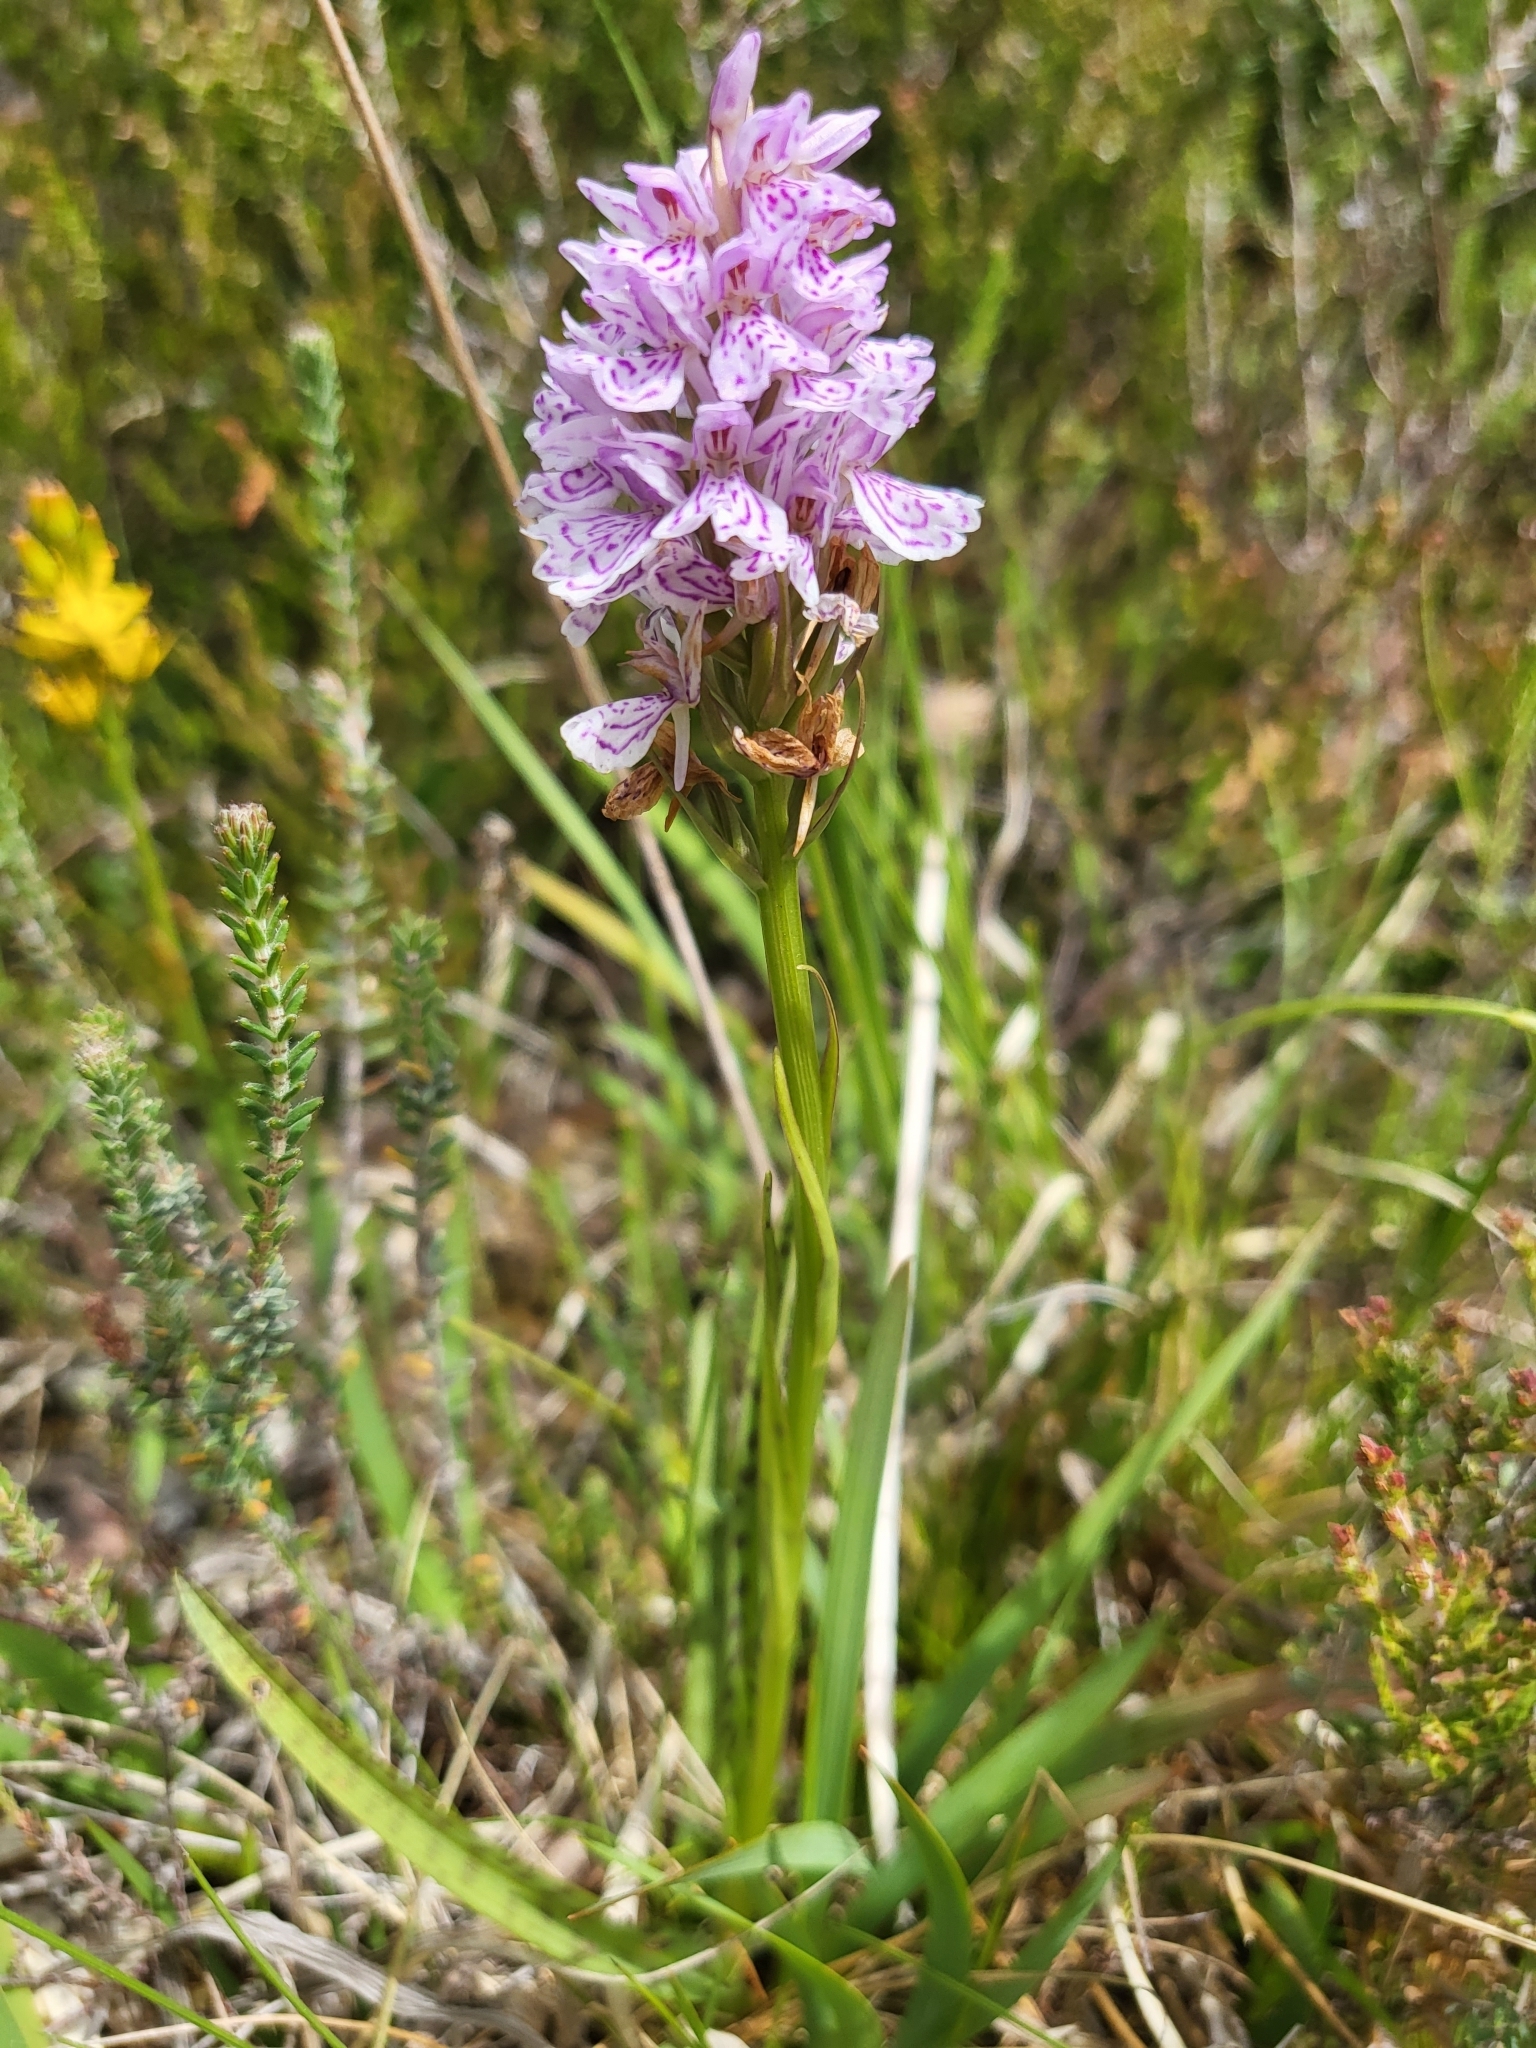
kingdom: Plantae
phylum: Tracheophyta
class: Liliopsida
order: Asparagales
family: Orchidaceae
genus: Dactylorhiza
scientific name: Dactylorhiza maculata
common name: Heath spotted-orchid
